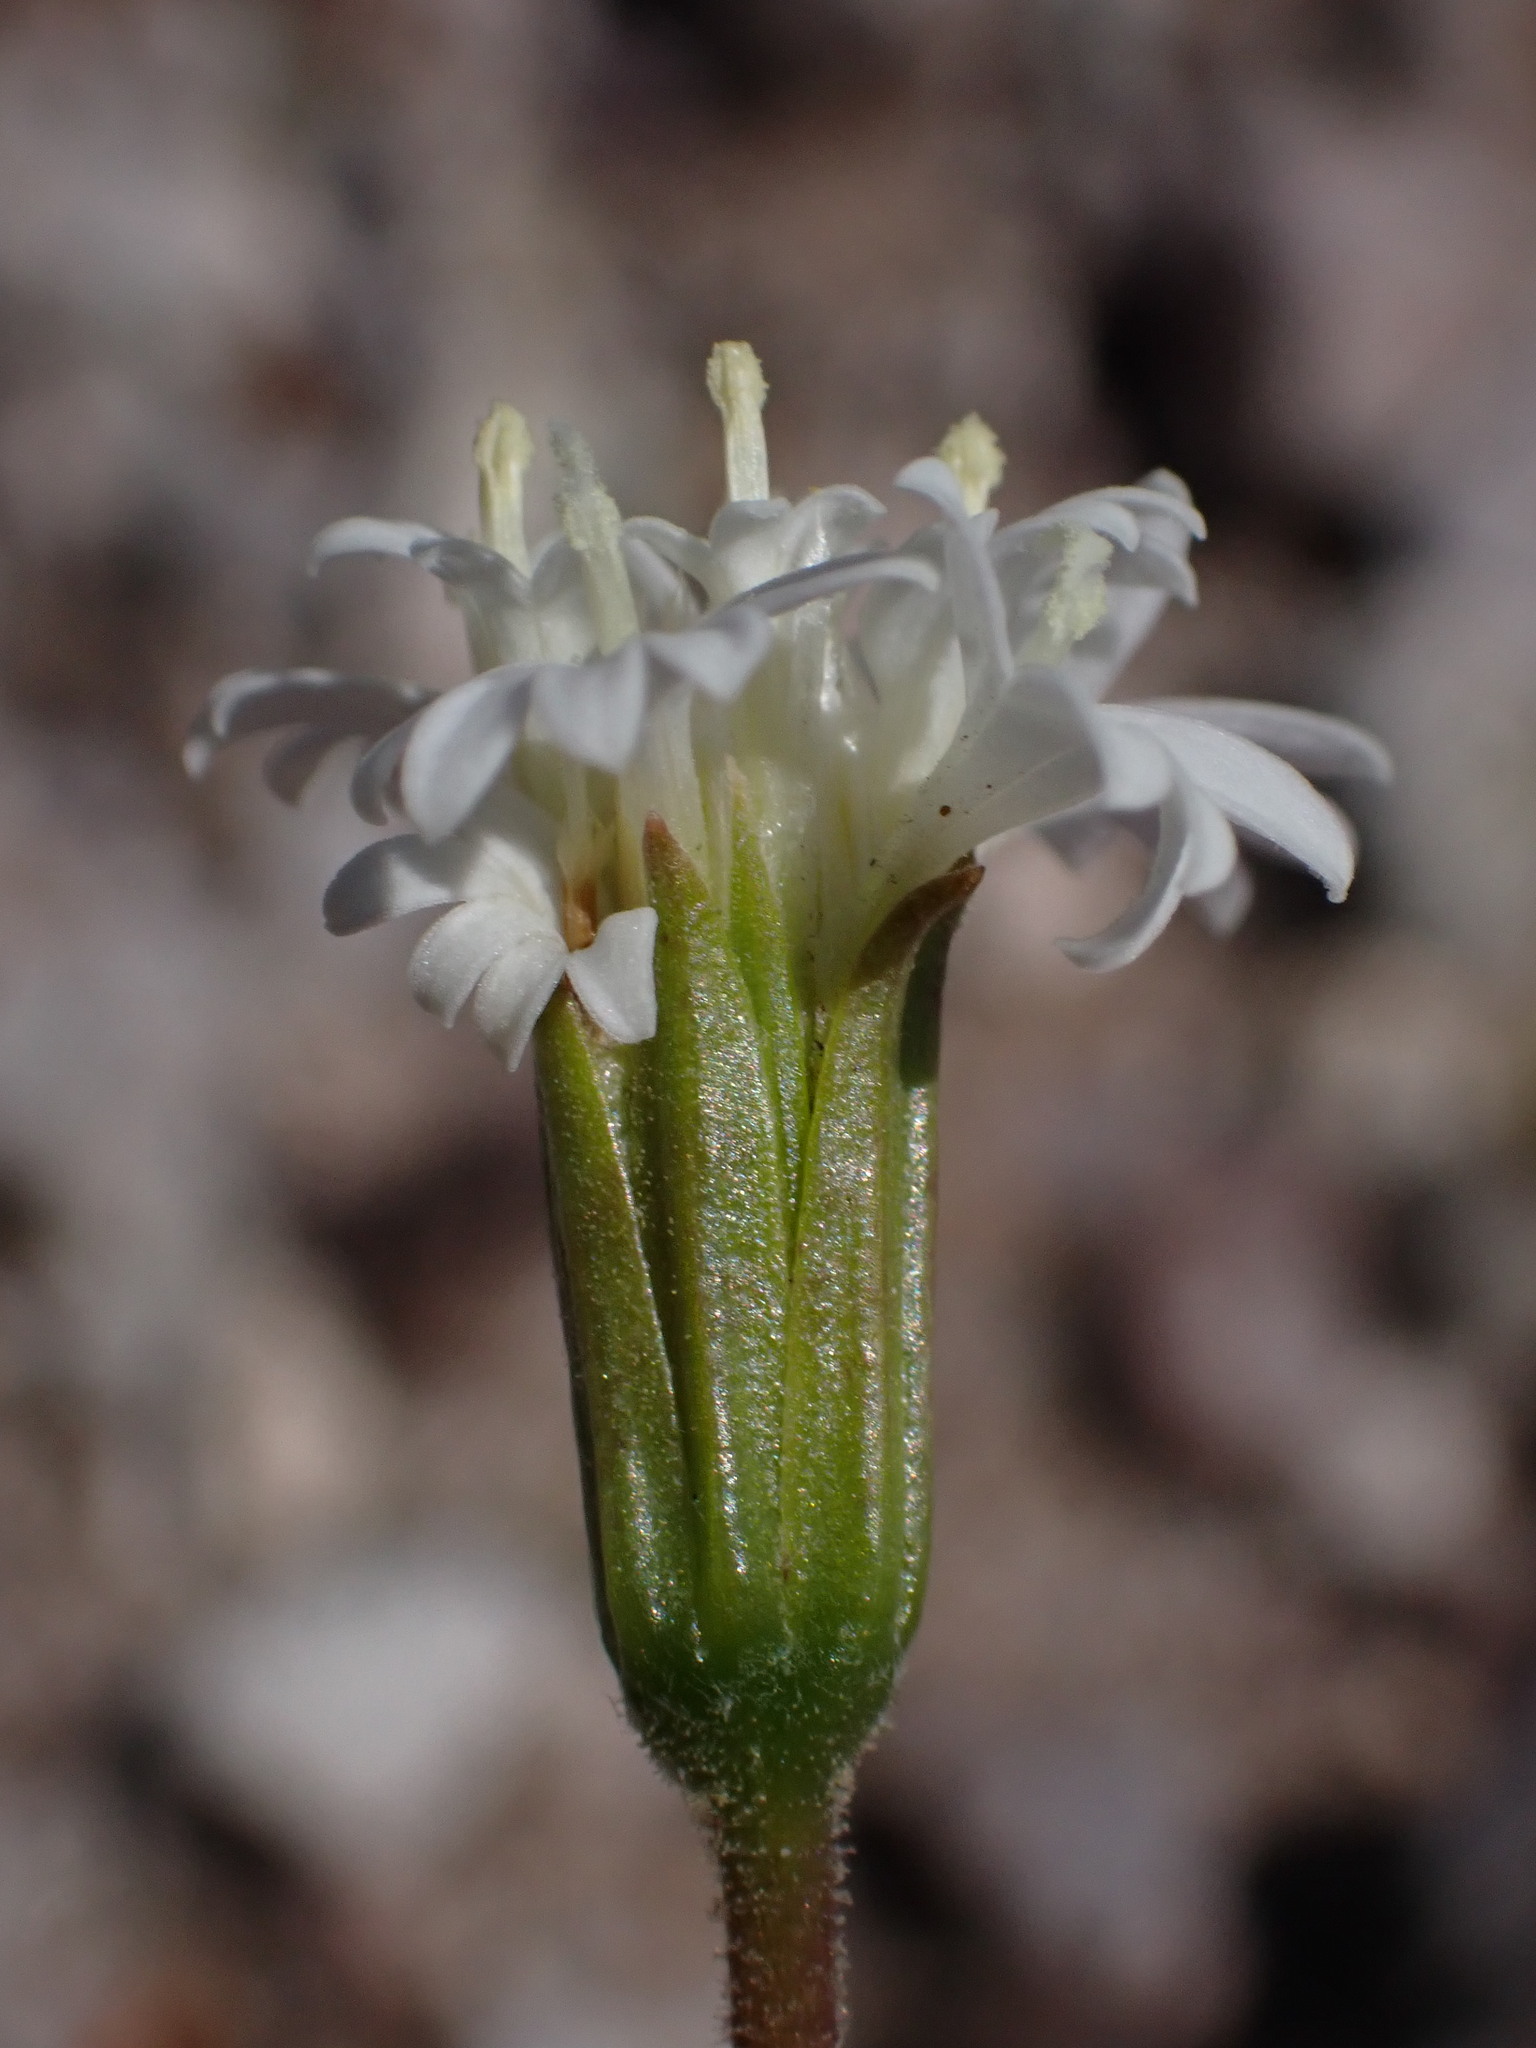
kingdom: Plantae
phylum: Tracheophyta
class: Magnoliopsida
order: Asterales
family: Asteraceae
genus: Chaenactis
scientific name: Chaenactis fremontii
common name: Fremont pincushion
